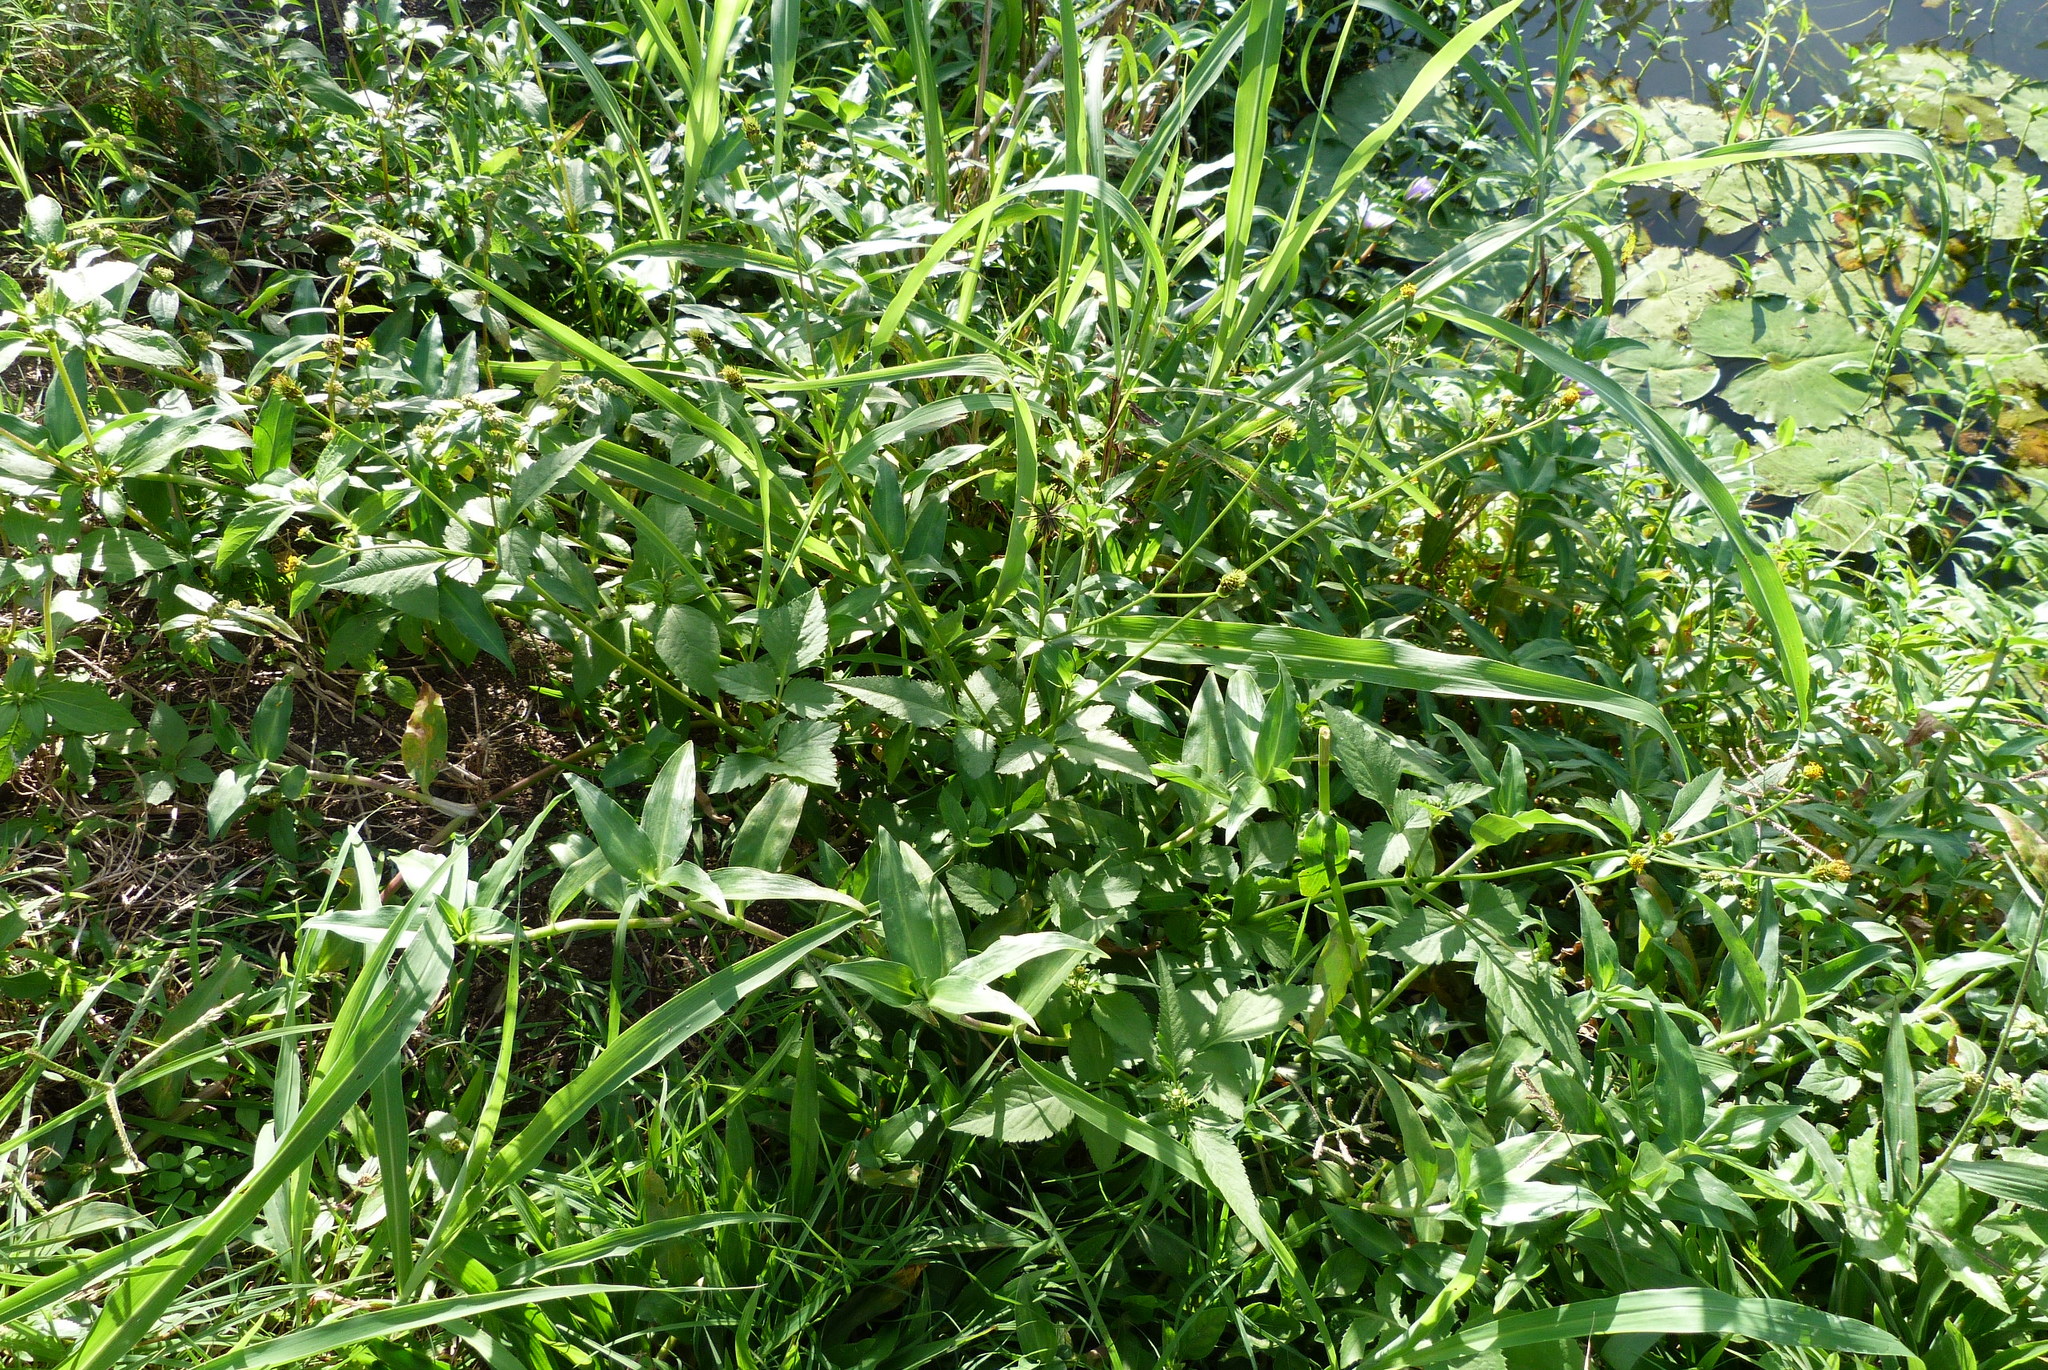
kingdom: Plantae
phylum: Tracheophyta
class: Magnoliopsida
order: Asterales
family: Asteraceae
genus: Bidens
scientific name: Bidens pilosa
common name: Black-jack
